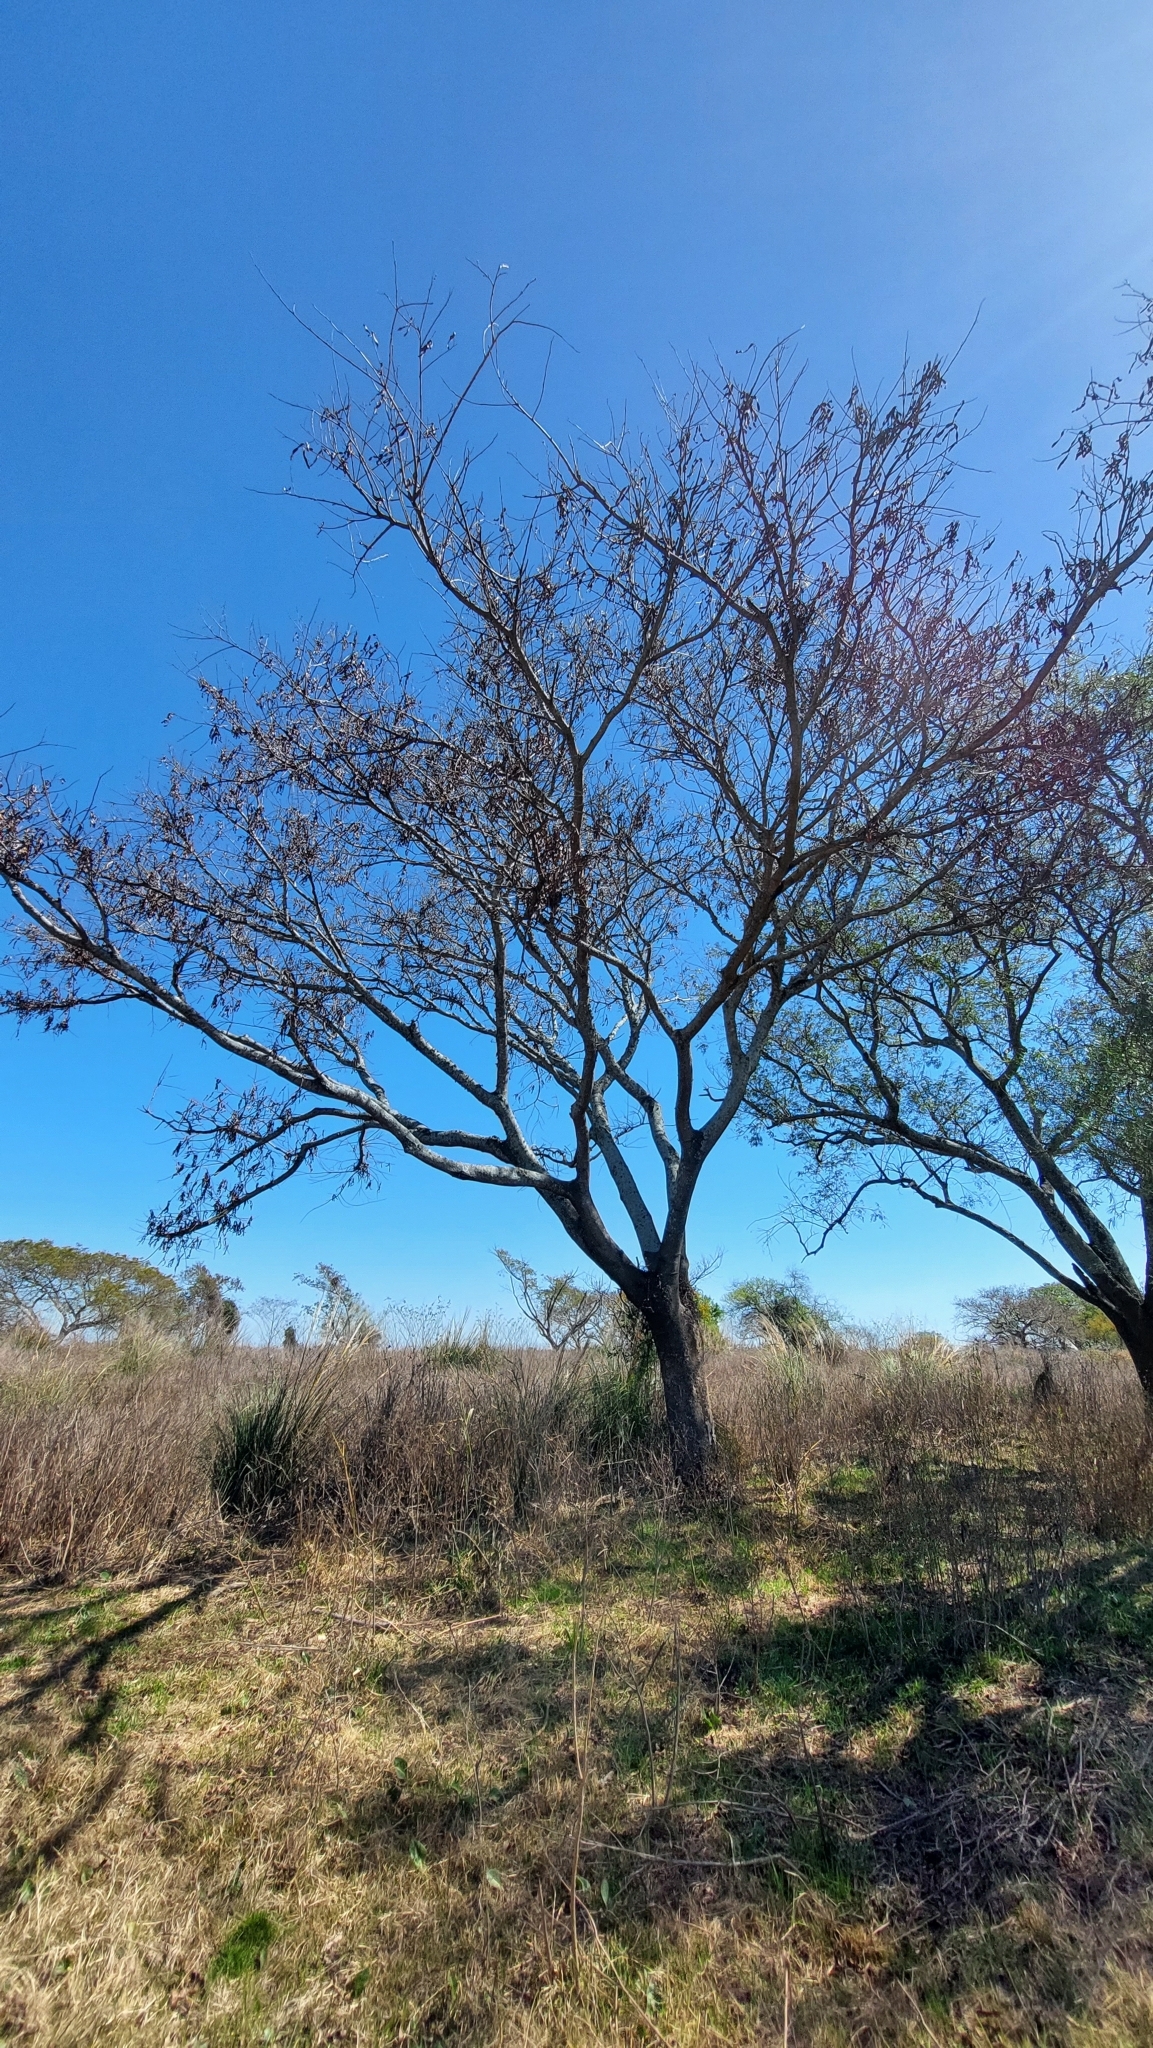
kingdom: Plantae
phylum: Tracheophyta
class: Magnoliopsida
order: Fabales
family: Fabaceae
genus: Albizia
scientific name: Albizia inundata
